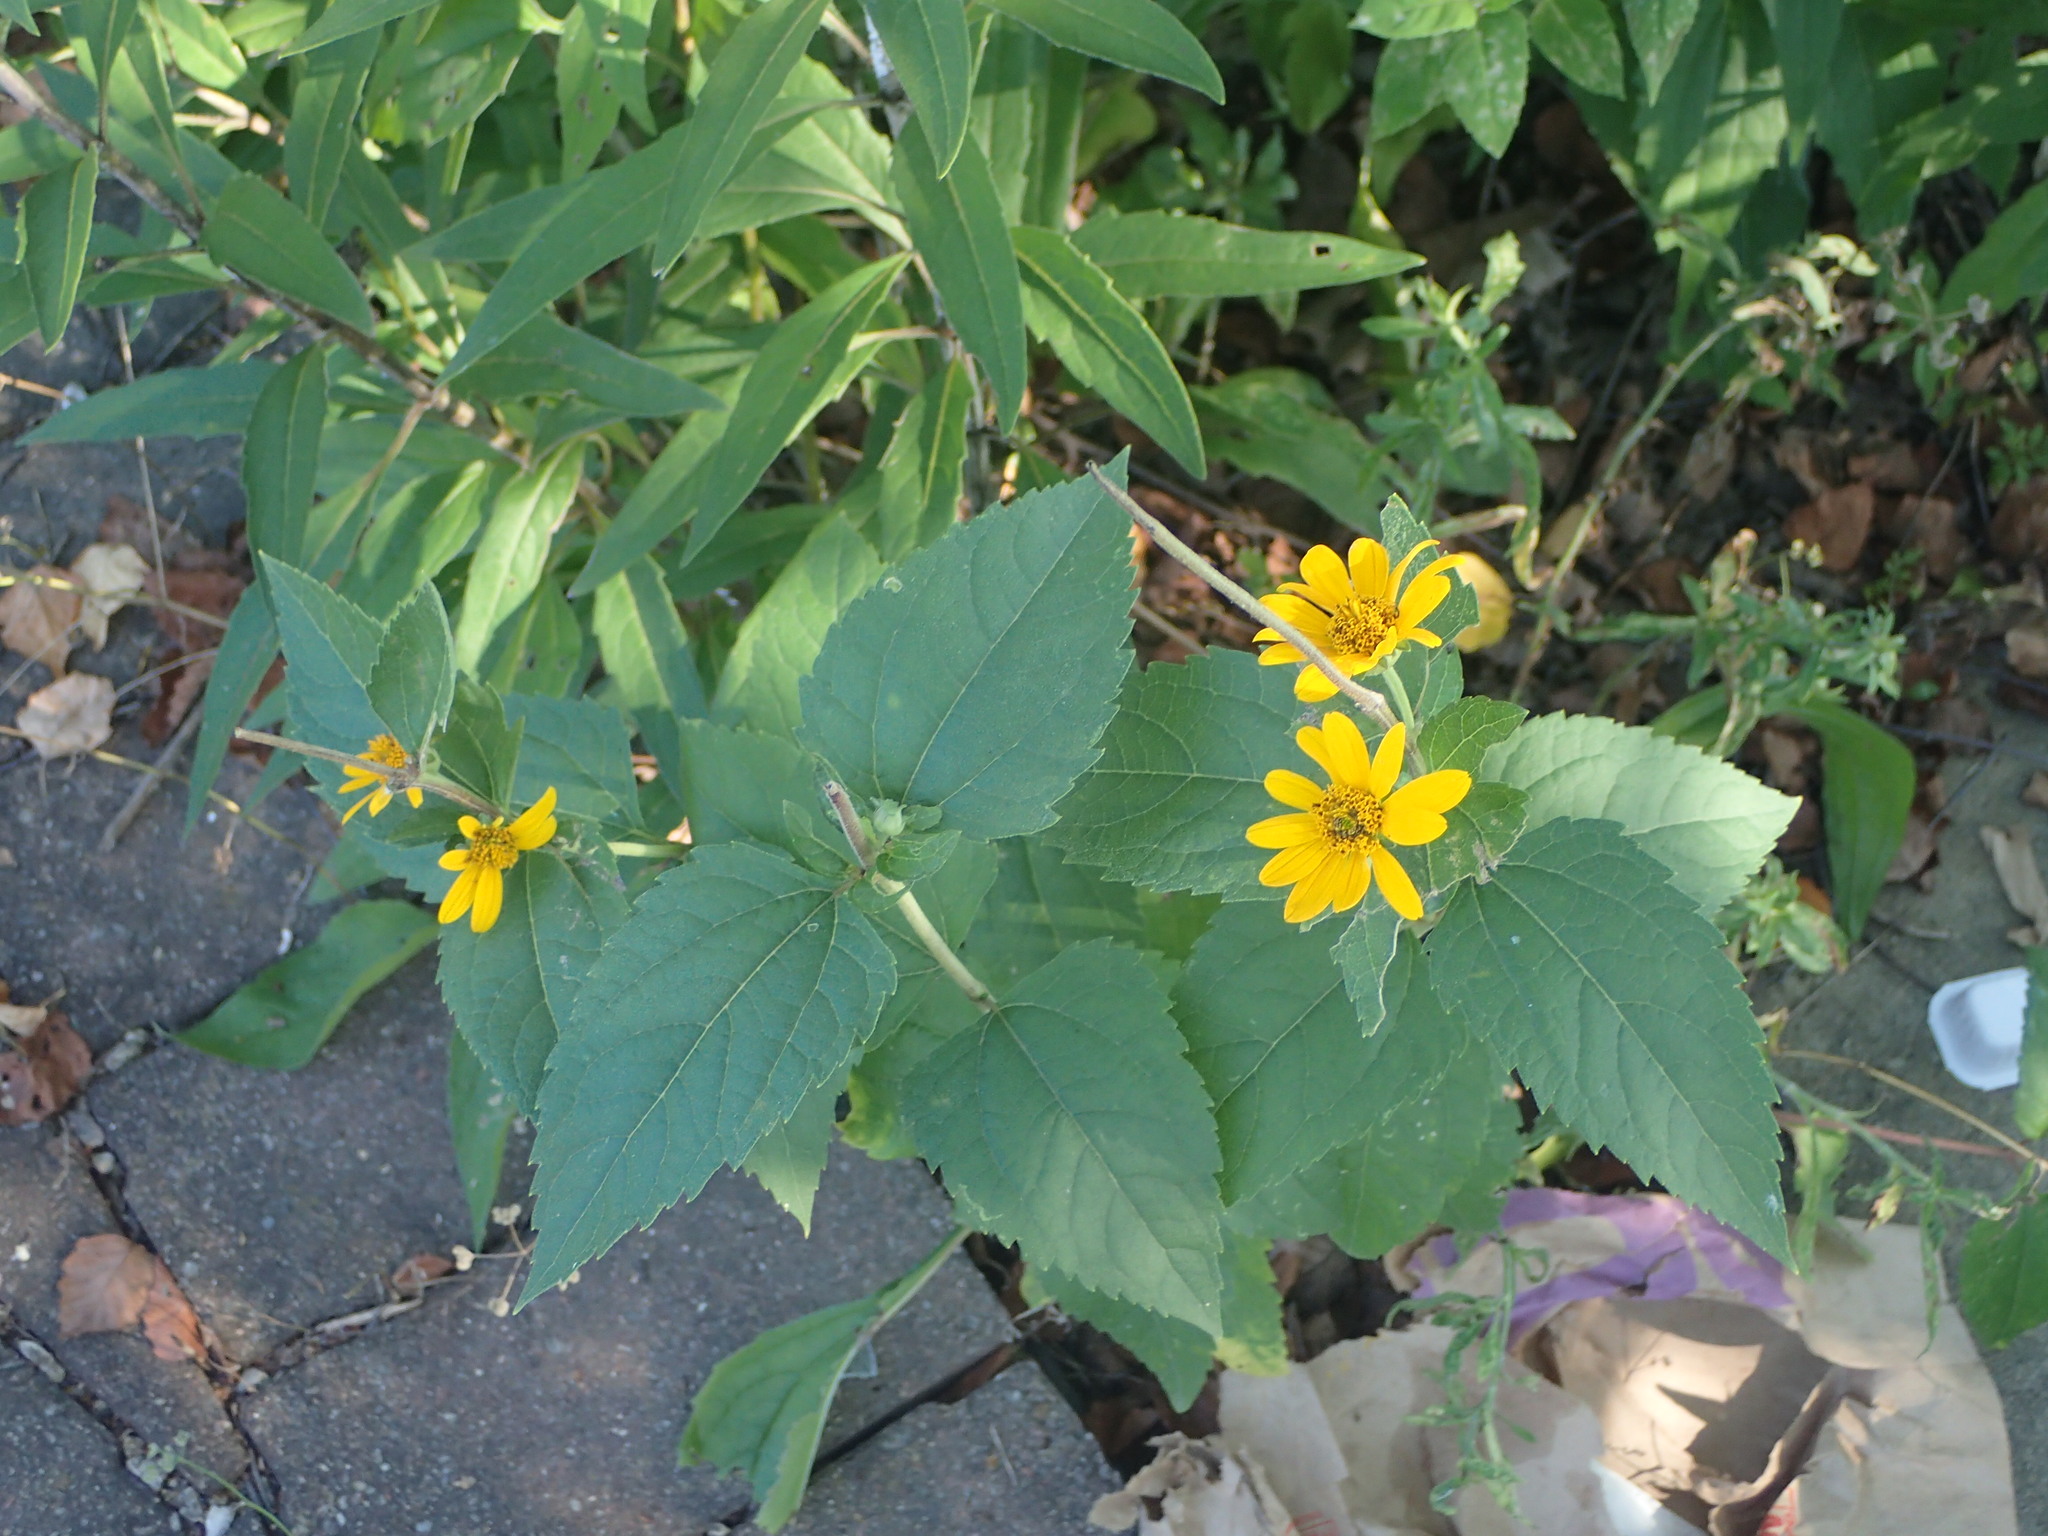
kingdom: Plantae
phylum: Tracheophyta
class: Magnoliopsida
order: Asterales
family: Asteraceae
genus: Heliopsis
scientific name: Heliopsis helianthoides
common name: False sunflower
